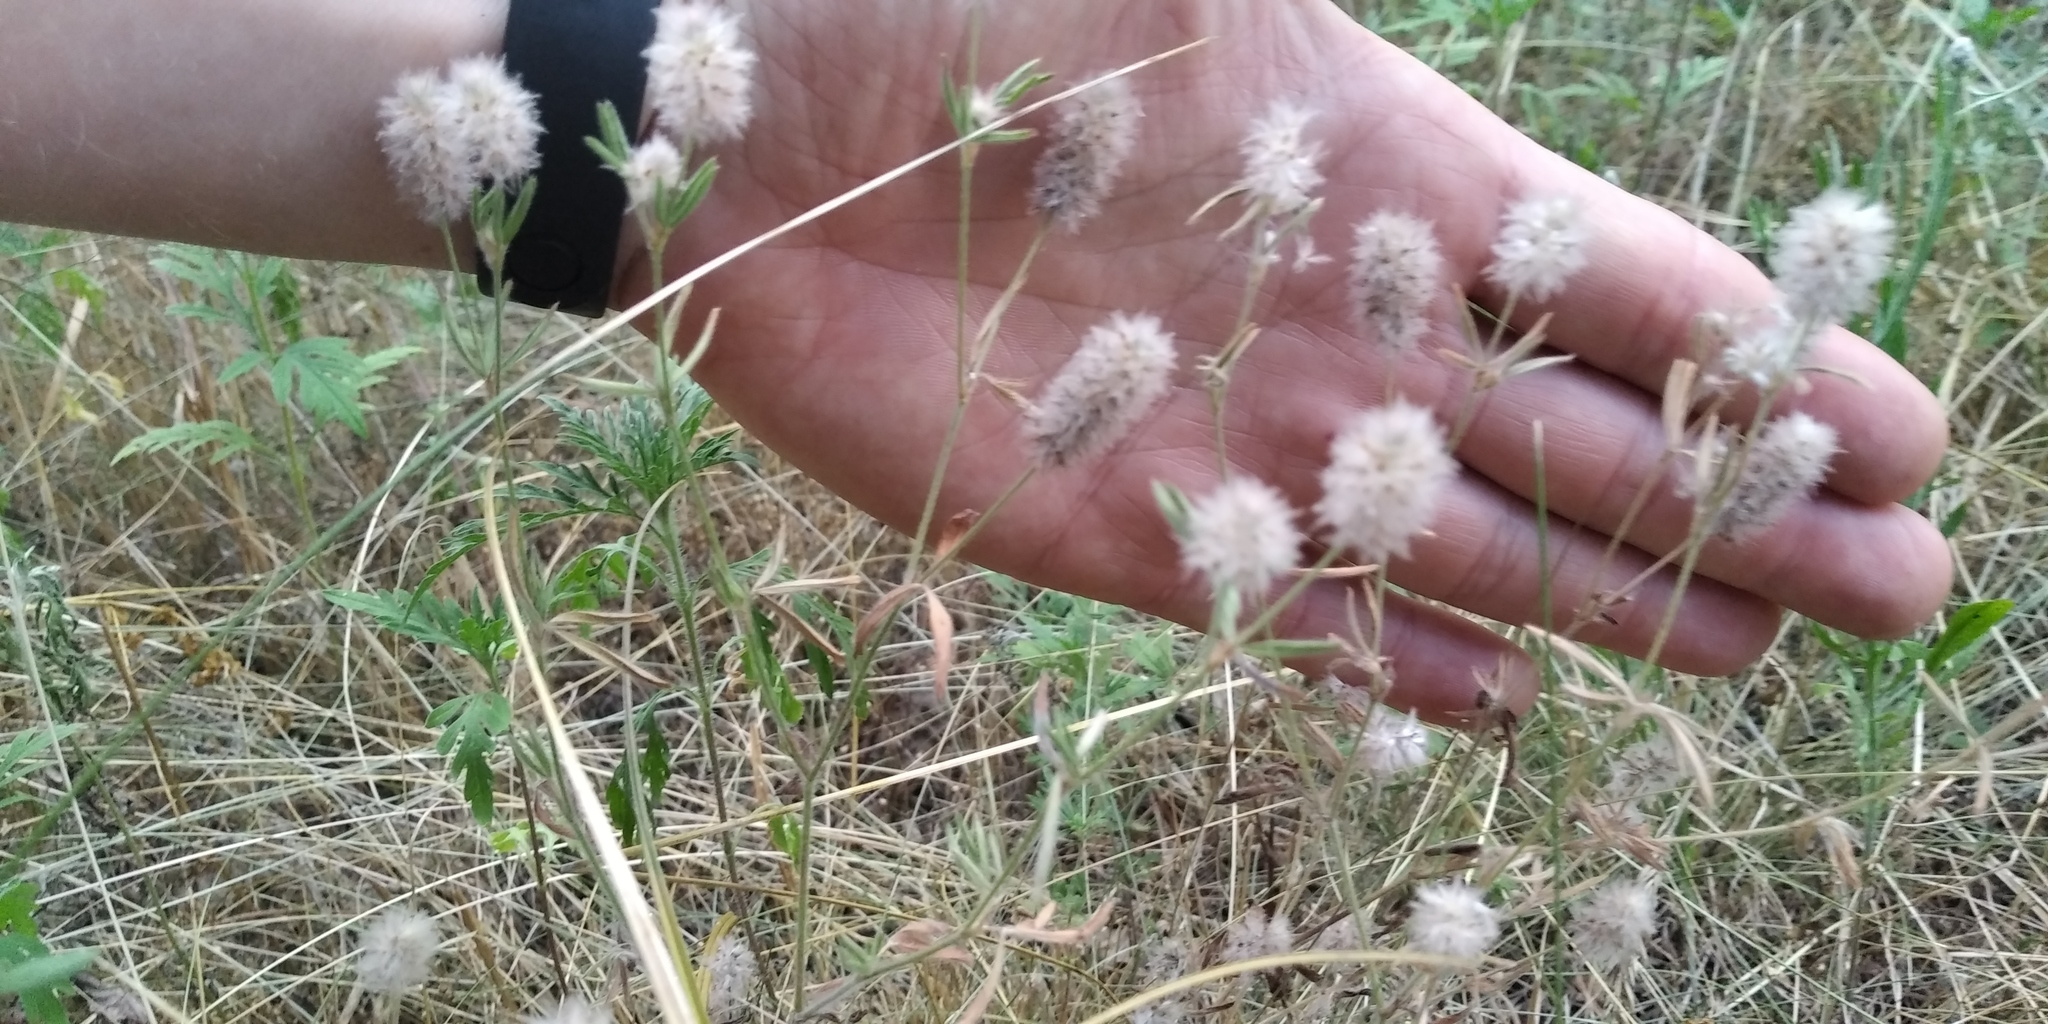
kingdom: Plantae
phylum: Tracheophyta
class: Magnoliopsida
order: Fabales
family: Fabaceae
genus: Trifolium
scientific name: Trifolium arvense
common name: Hare's-foot clover
